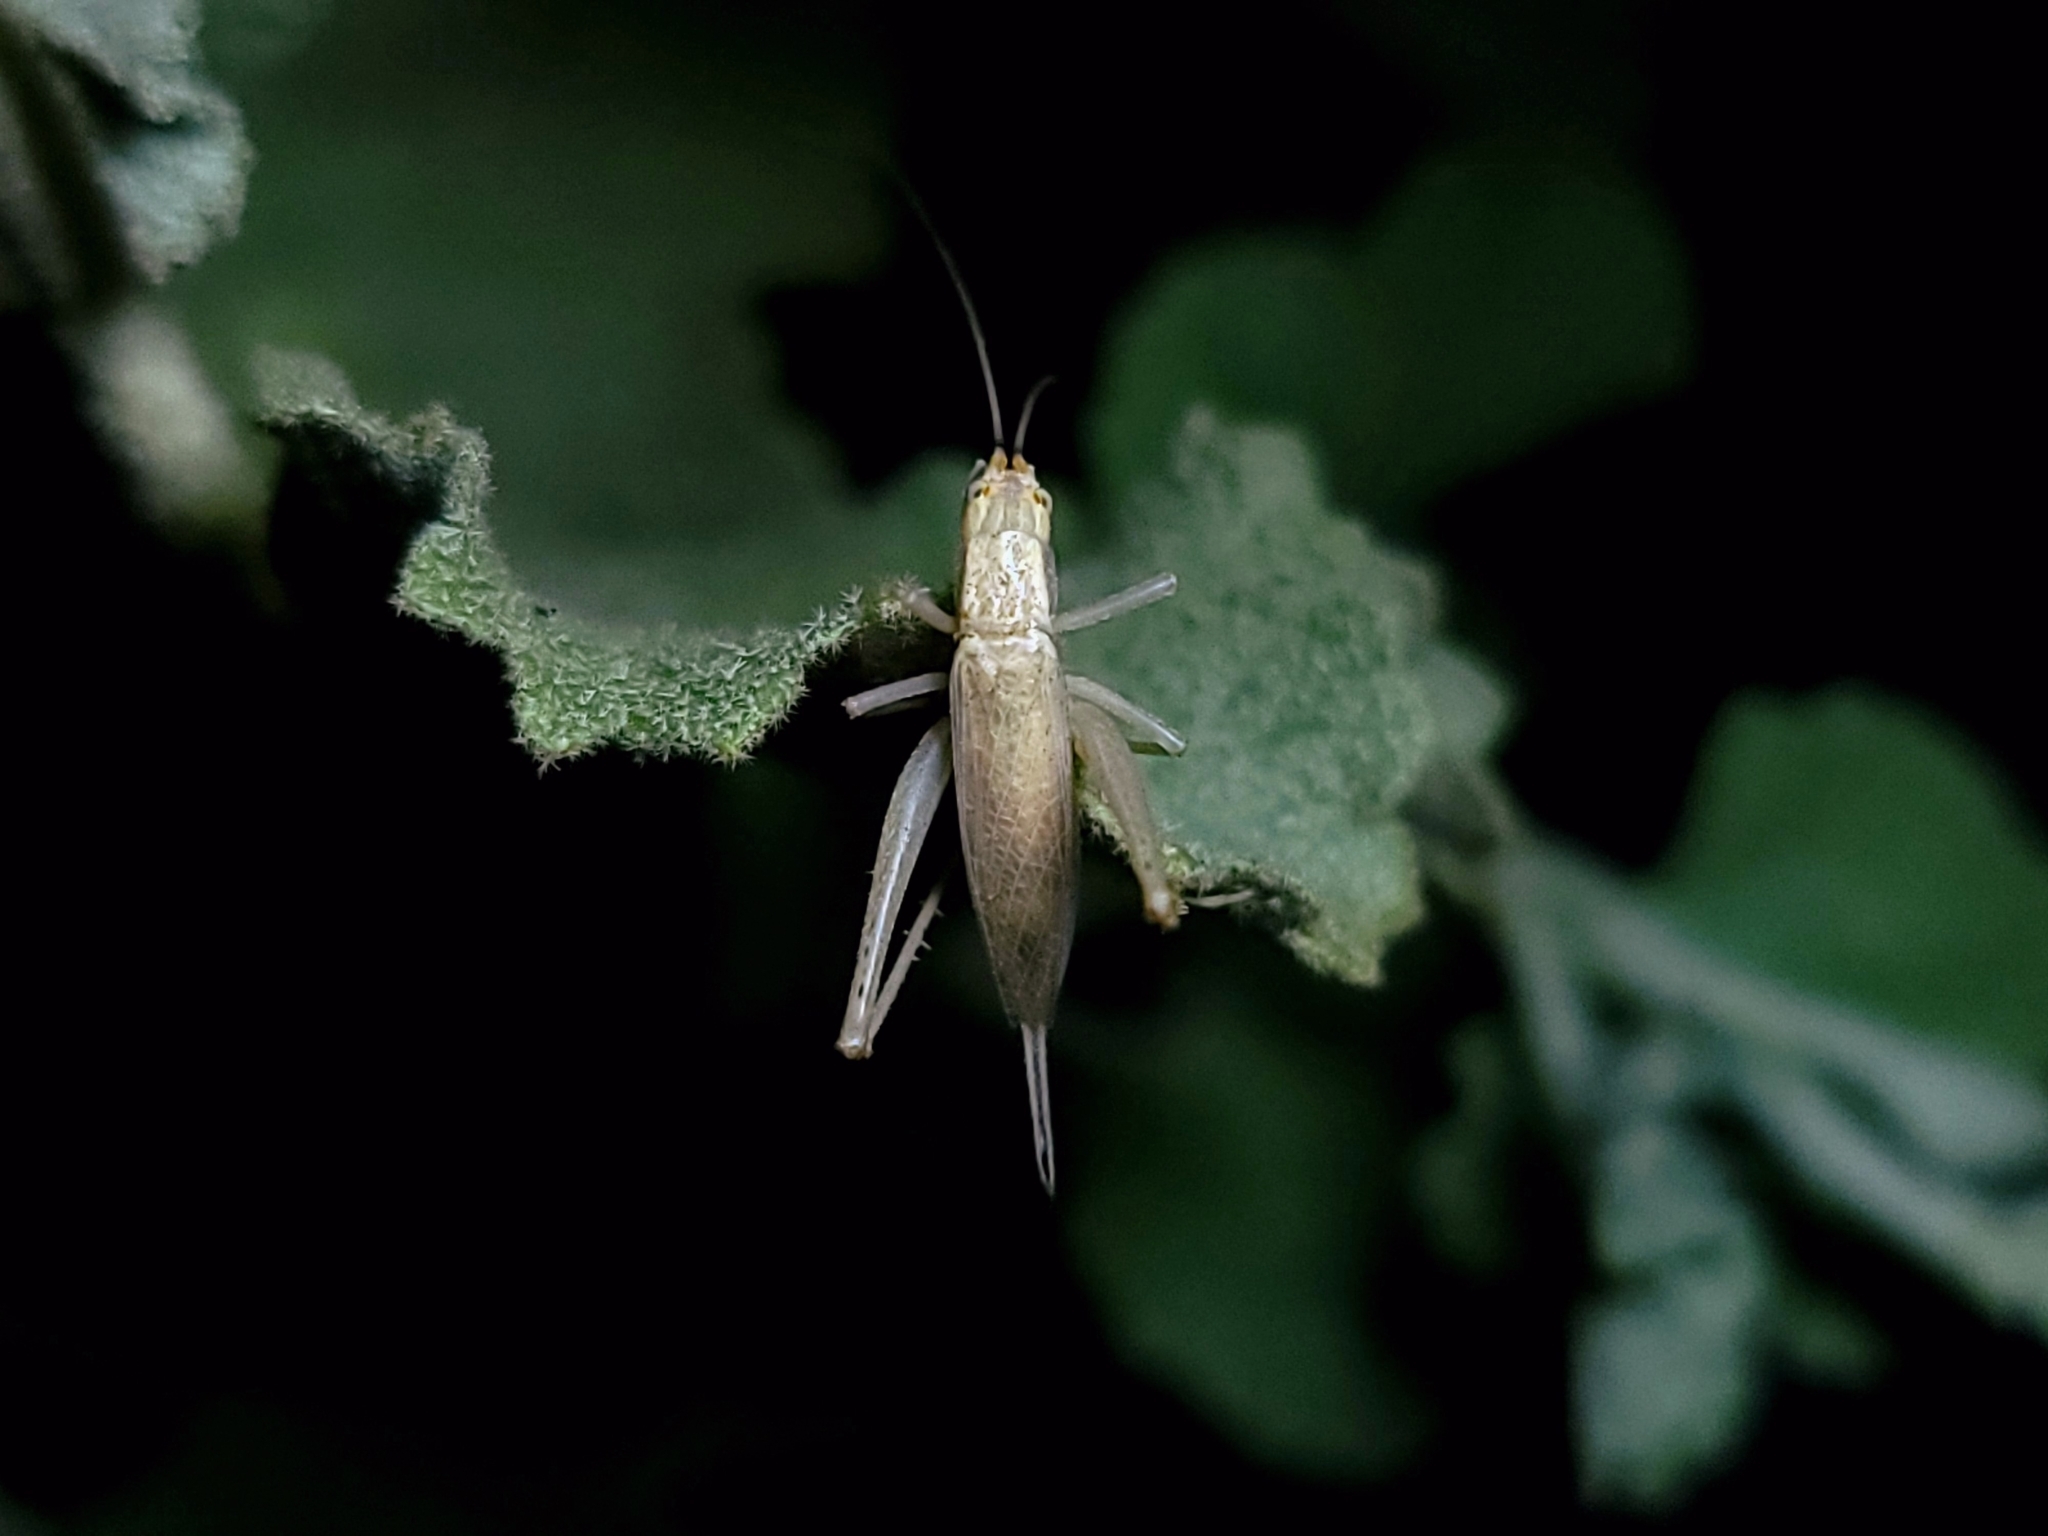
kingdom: Animalia
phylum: Arthropoda
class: Insecta
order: Orthoptera
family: Gryllidae
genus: Oecanthus
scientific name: Oecanthus californicus
